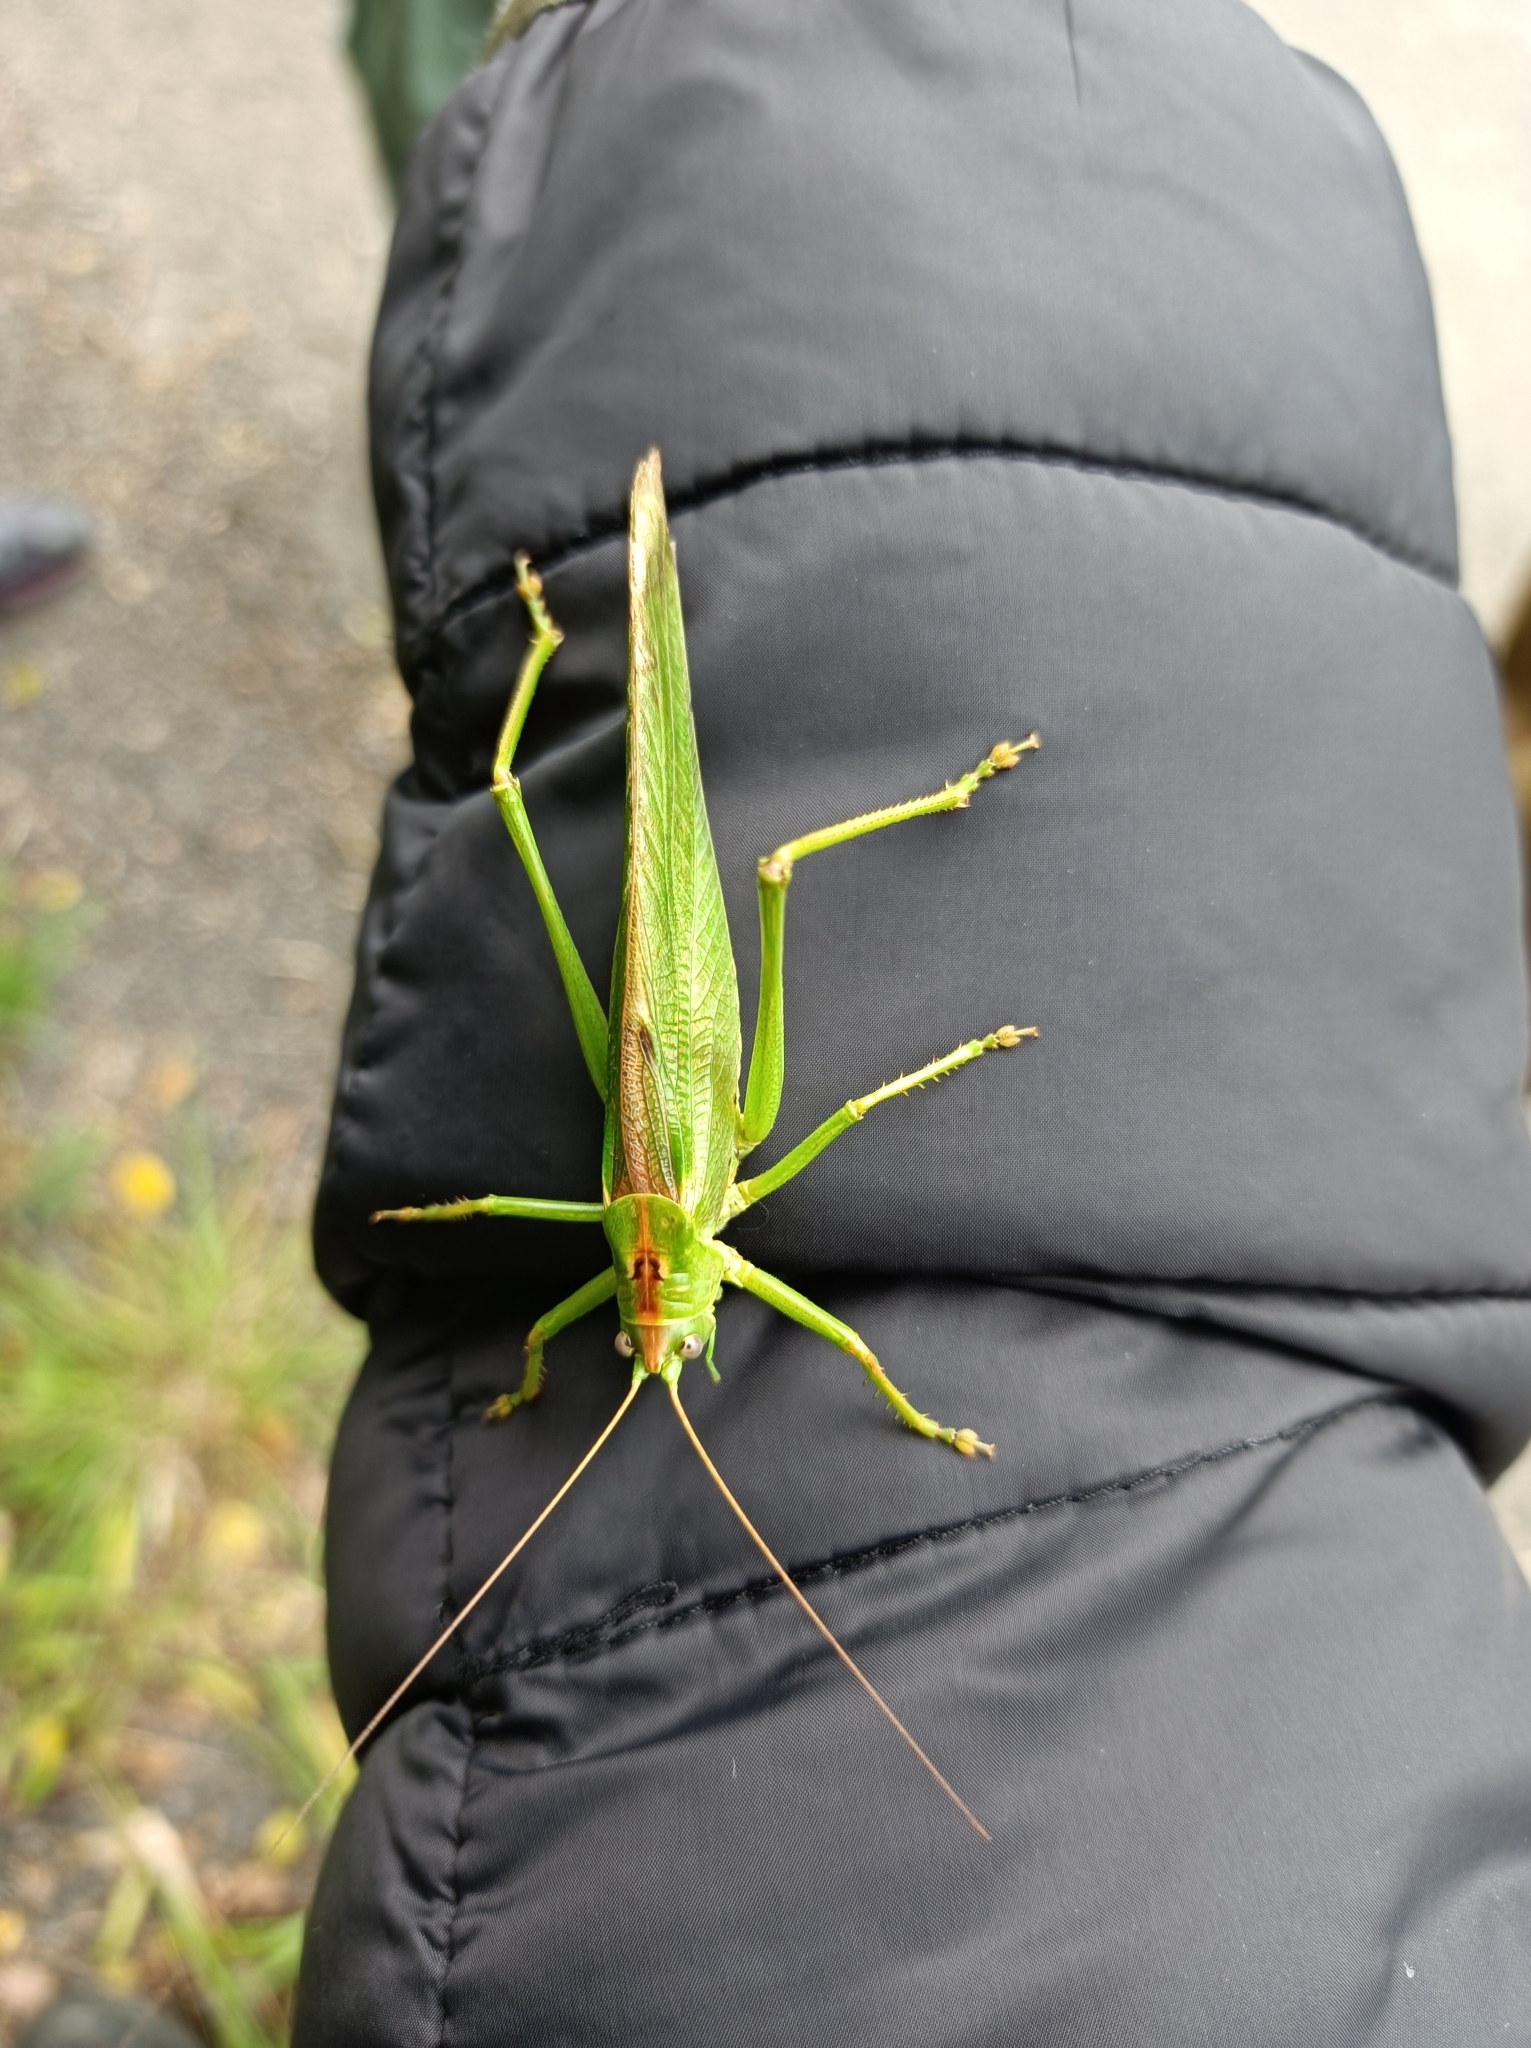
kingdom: Animalia
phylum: Arthropoda
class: Insecta
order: Orthoptera
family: Tettigoniidae
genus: Tettigonia
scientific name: Tettigonia viridissima
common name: Great green bush-cricket
